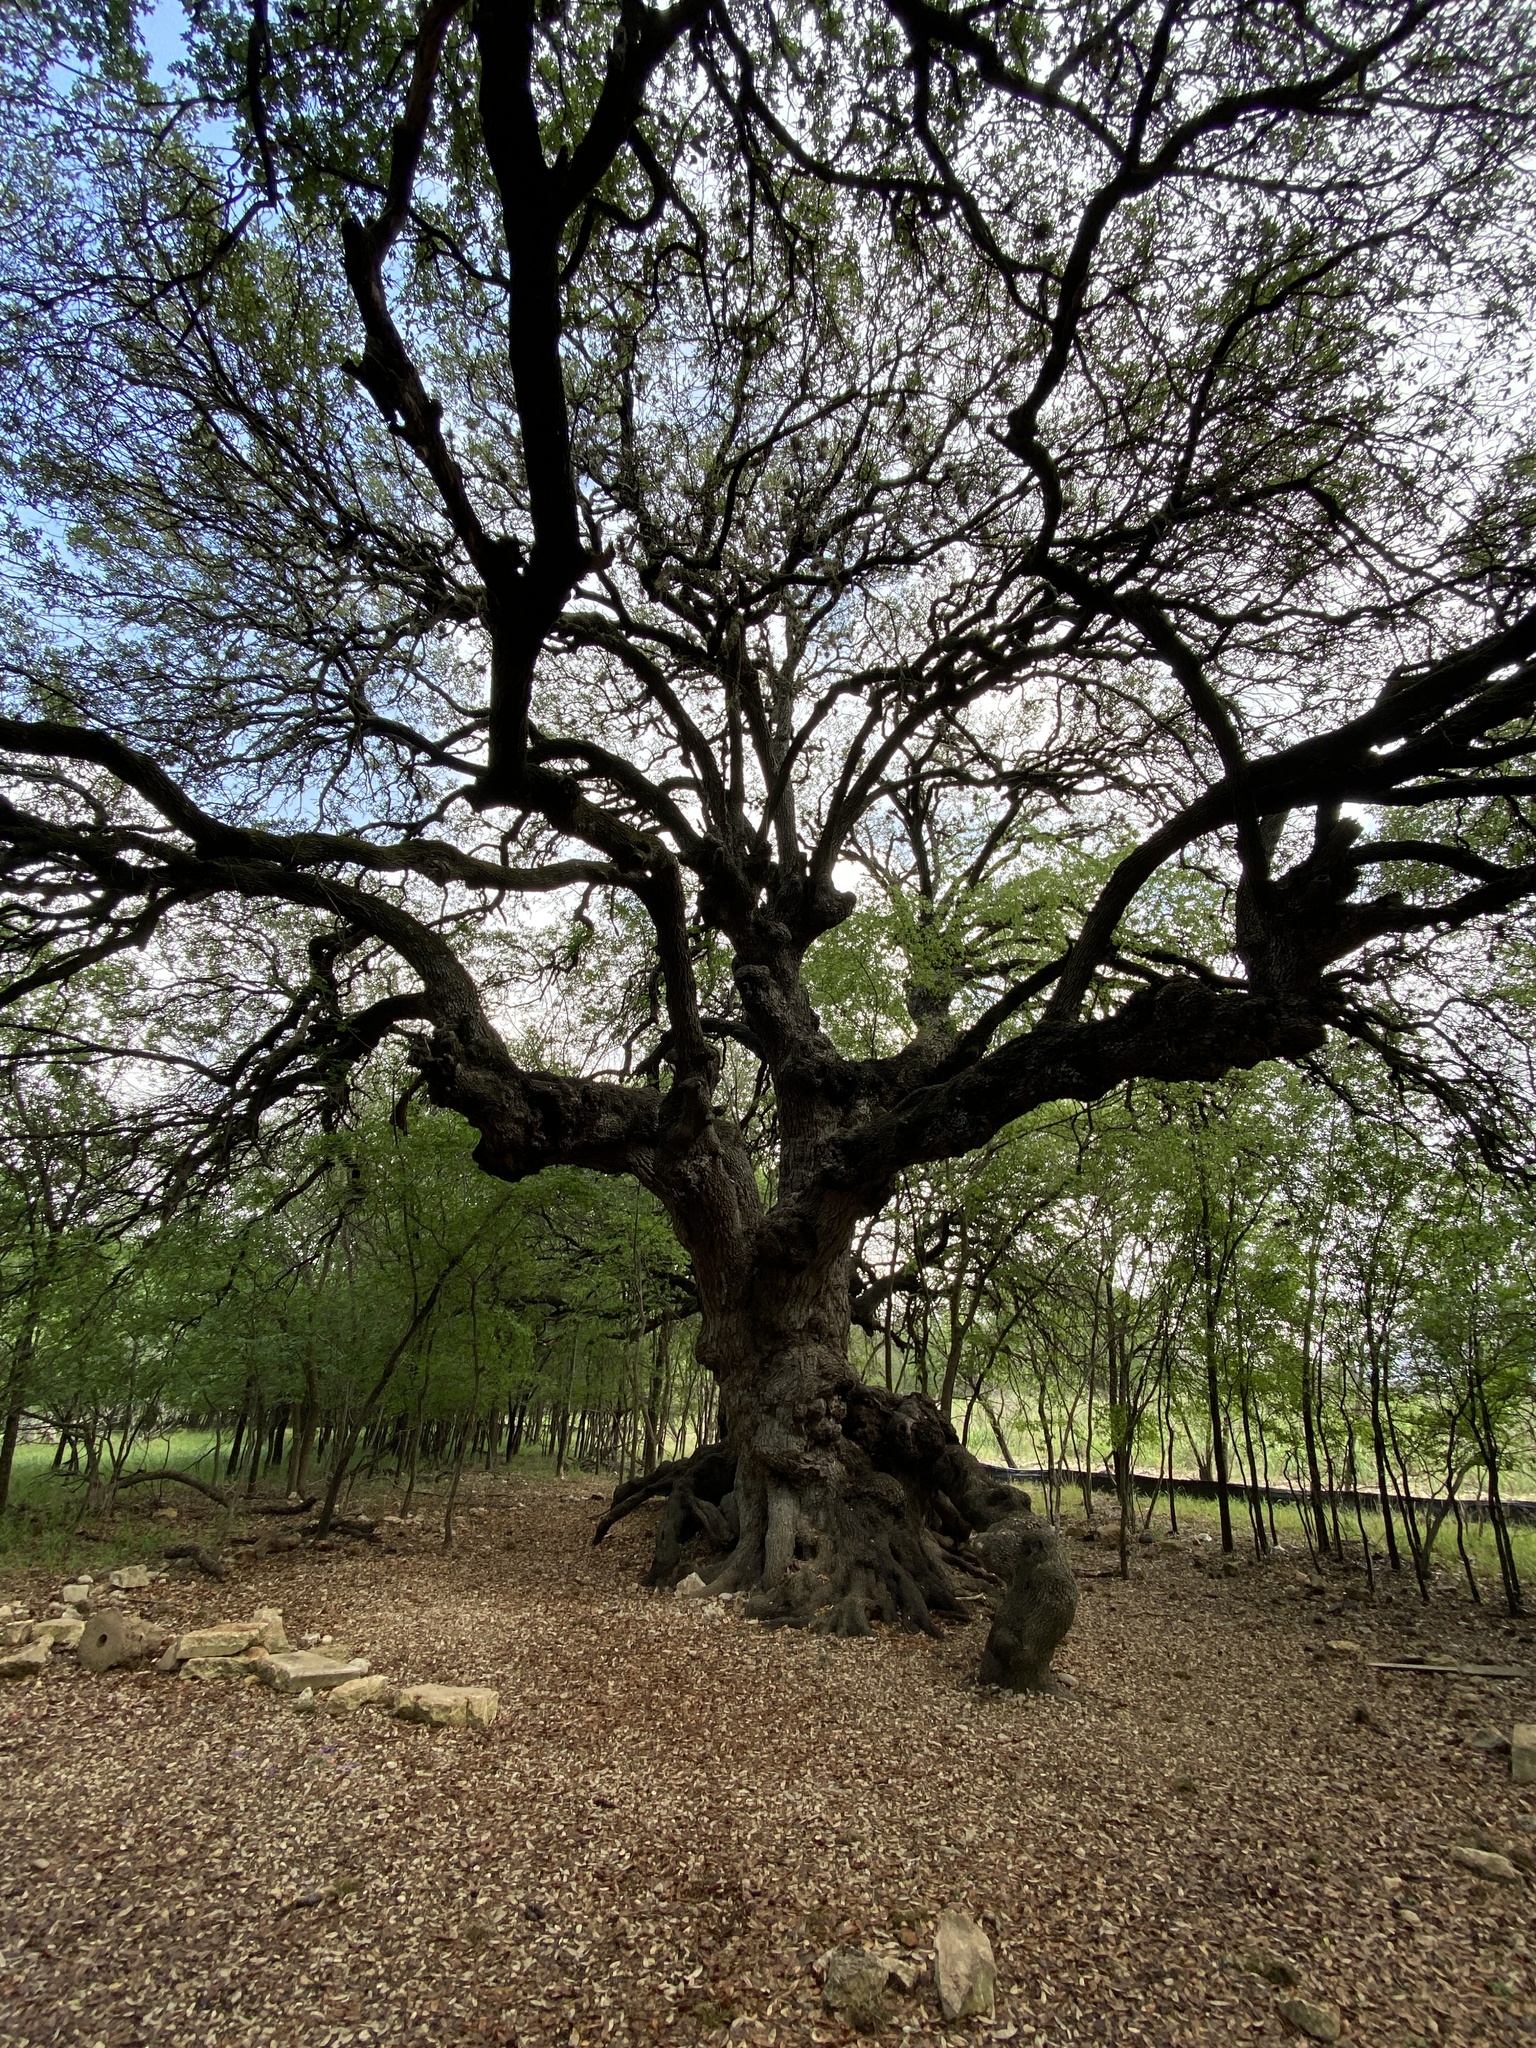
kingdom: Plantae
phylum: Tracheophyta
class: Magnoliopsida
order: Fagales
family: Fagaceae
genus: Quercus
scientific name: Quercus fusiformis
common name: Texas live oak
